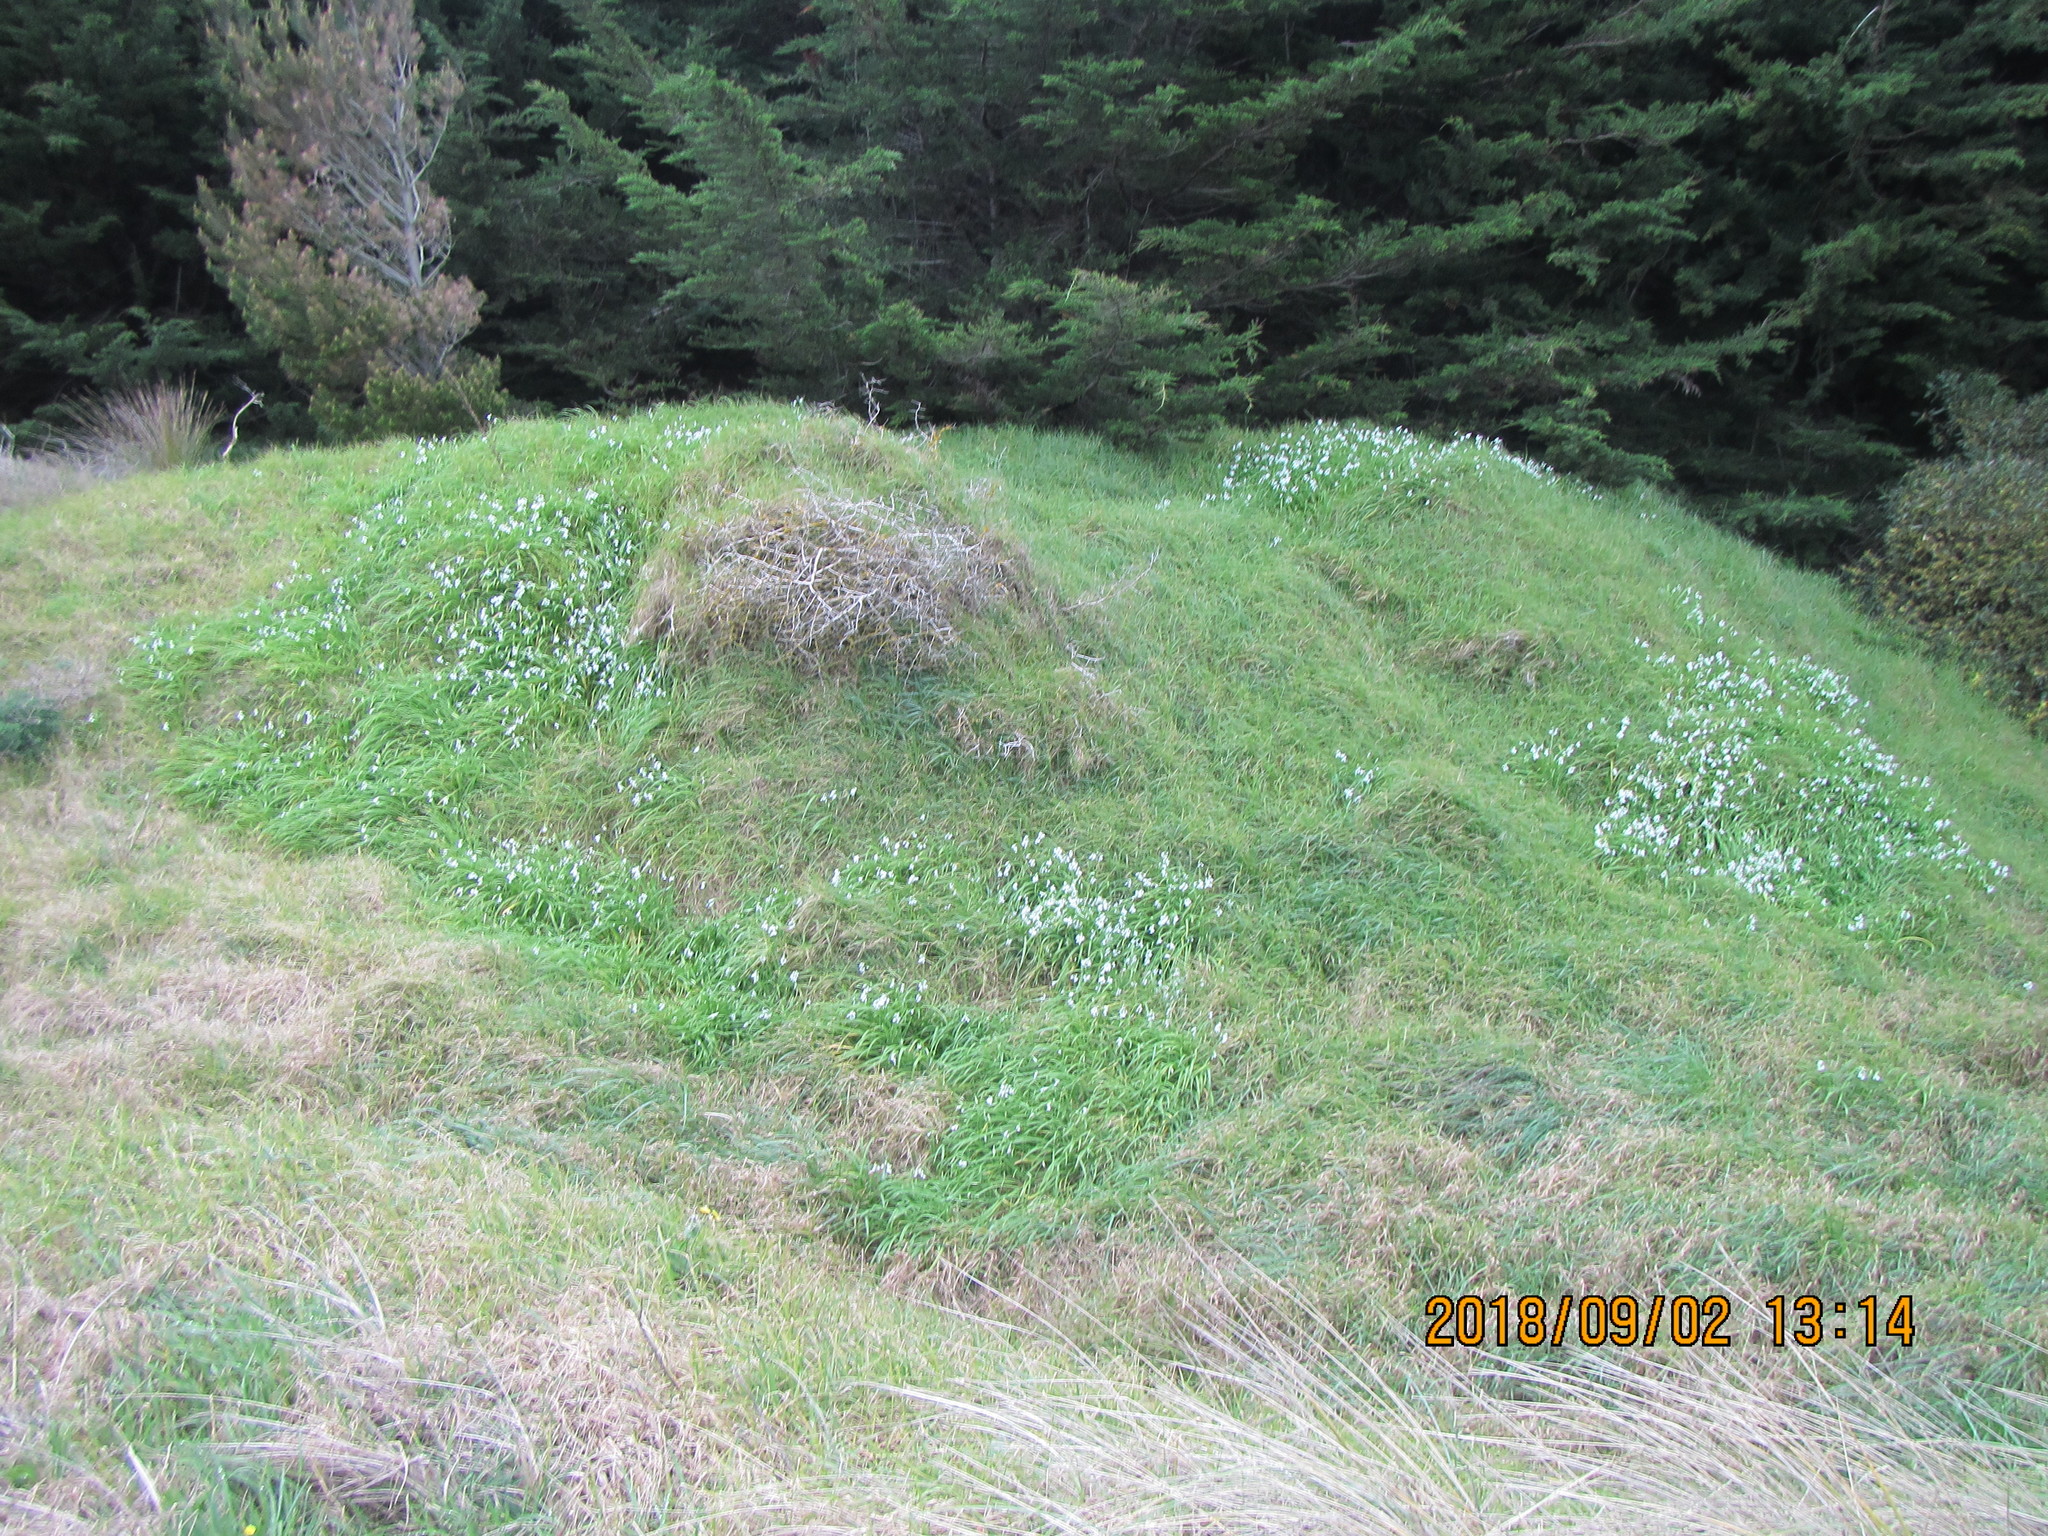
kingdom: Plantae
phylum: Tracheophyta
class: Liliopsida
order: Asparagales
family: Amaryllidaceae
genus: Allium
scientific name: Allium triquetrum
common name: Three-cornered garlic
